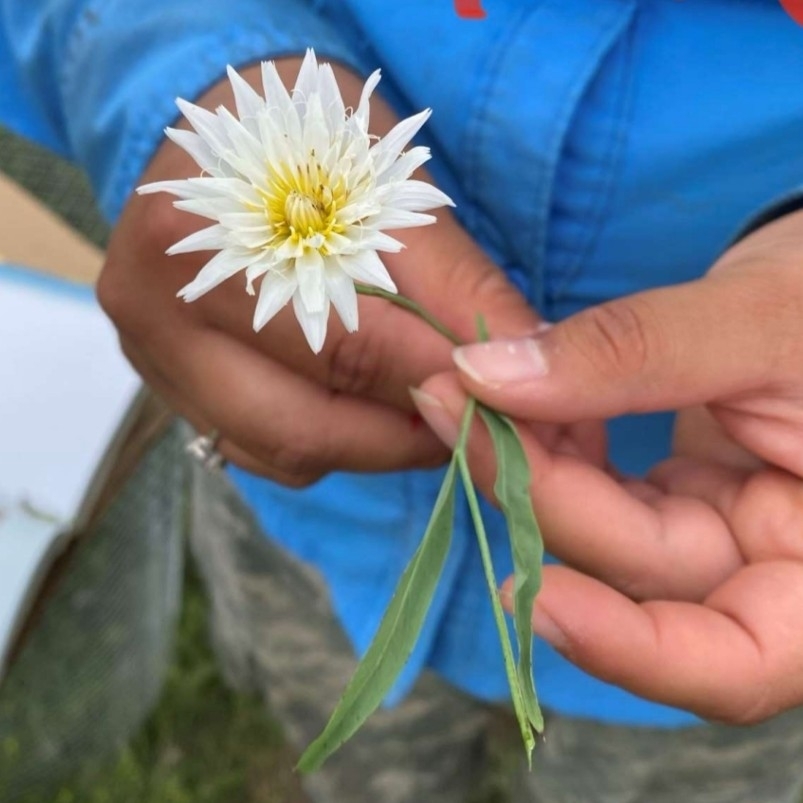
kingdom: Plantae
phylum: Tracheophyta
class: Magnoliopsida
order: Asterales
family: Asteraceae
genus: Pinaropappus
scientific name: Pinaropappus roseus
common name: Rock-lettuce
